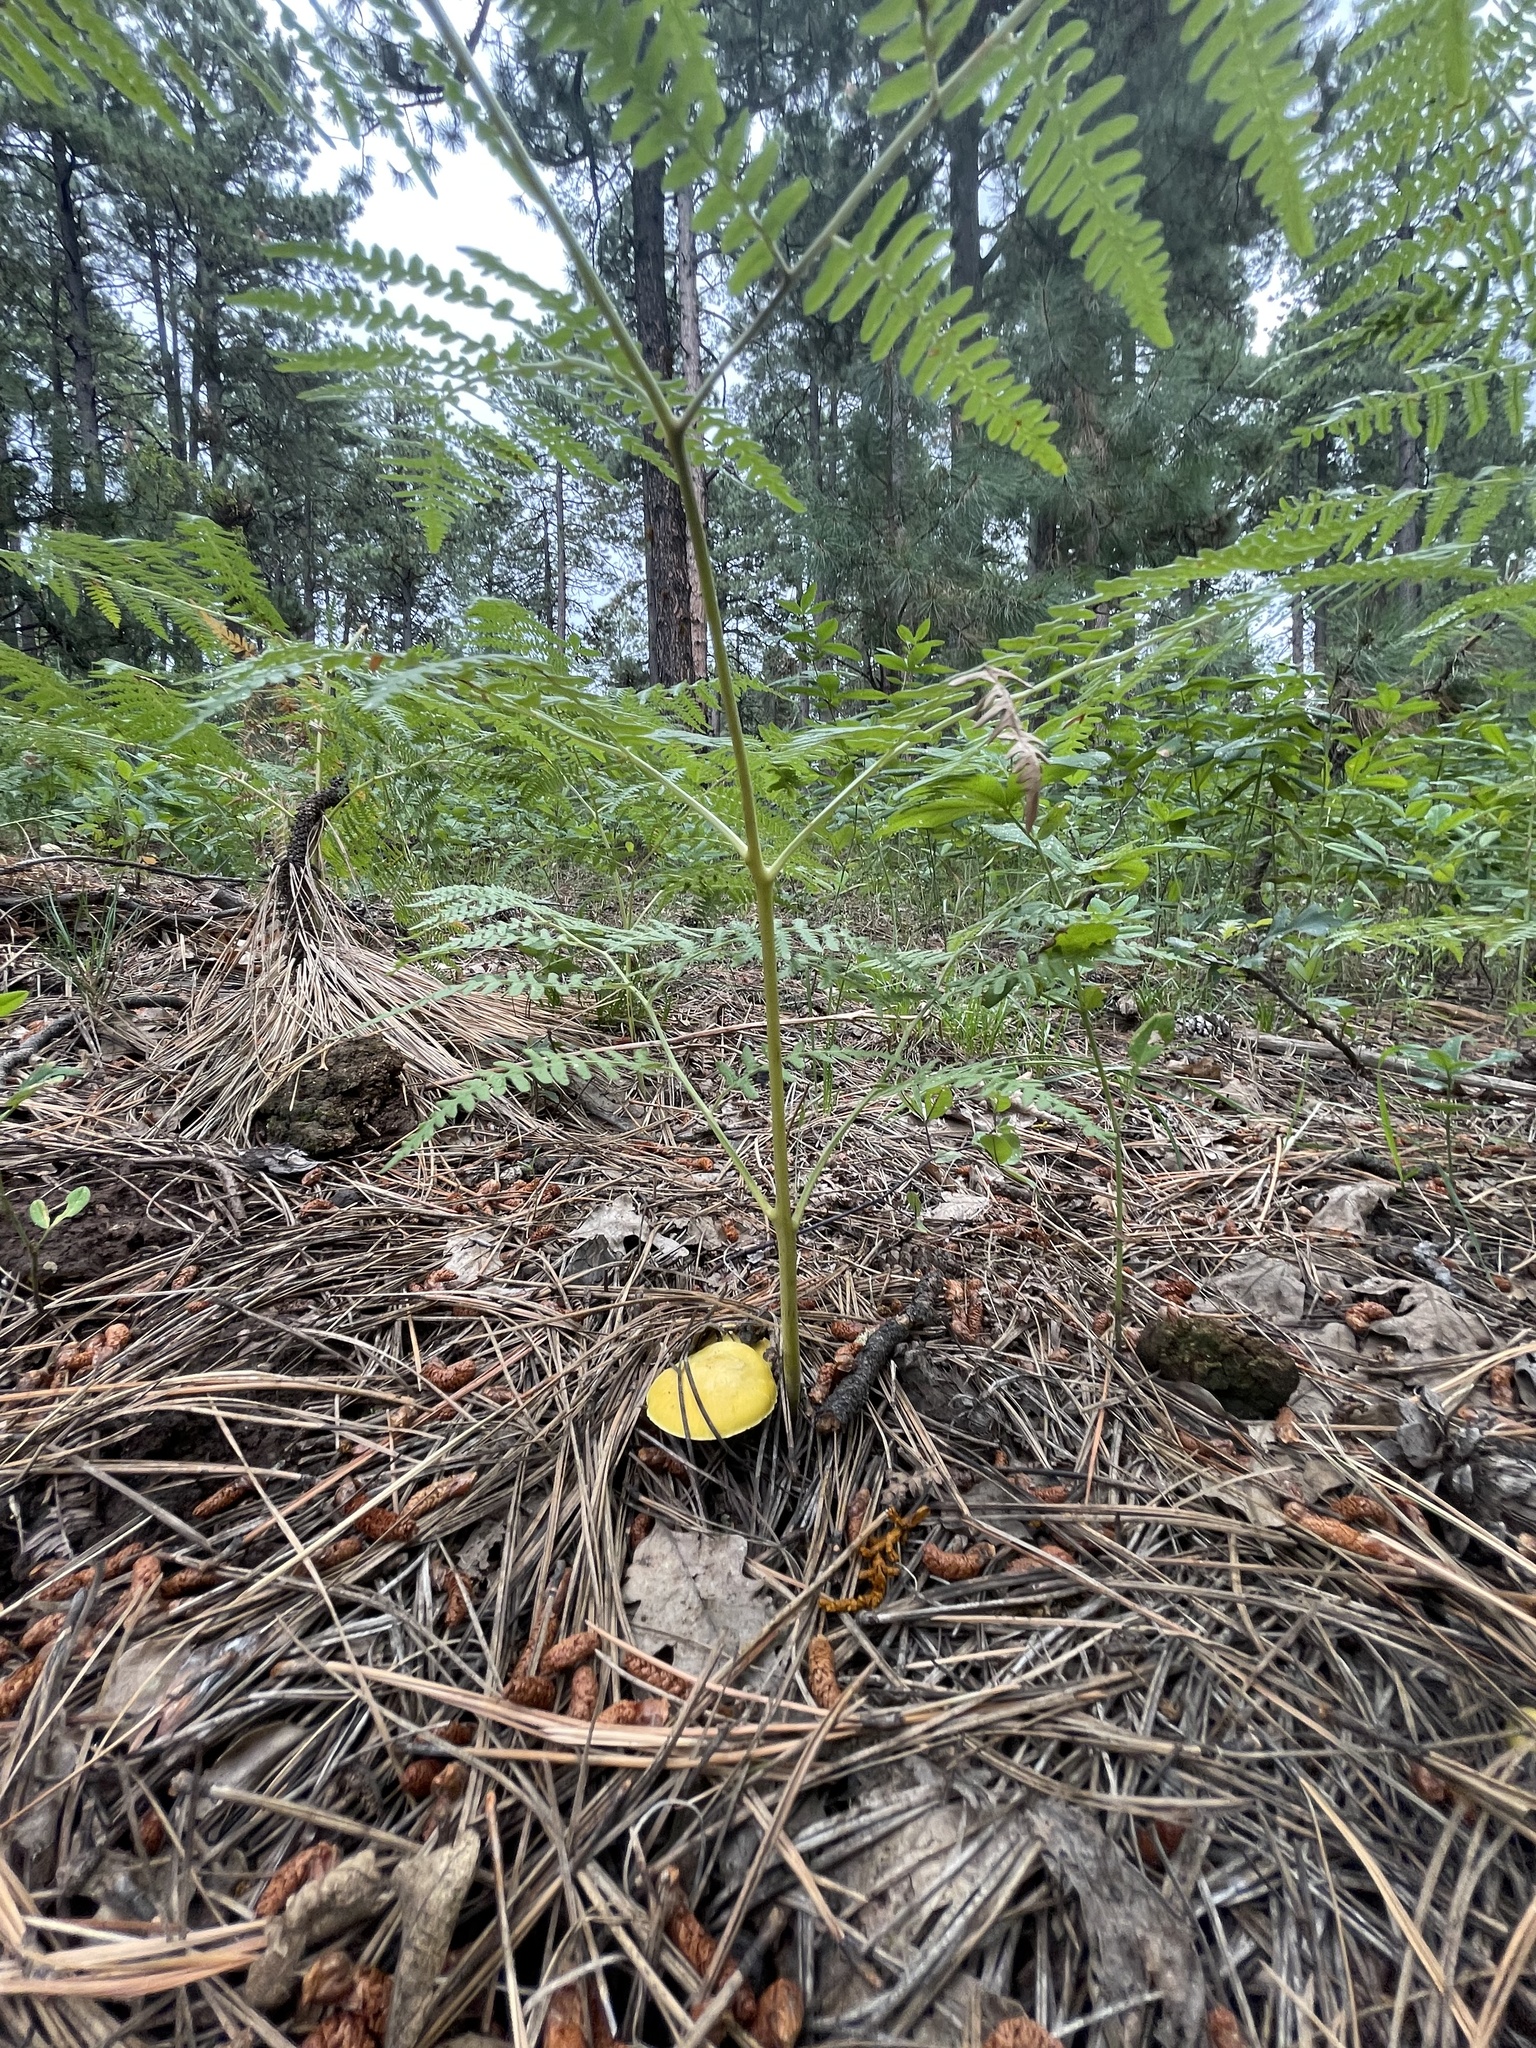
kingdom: Fungi
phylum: Basidiomycota
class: Agaricomycetes
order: Agaricales
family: Agaricaceae
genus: Floccularia
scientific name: Floccularia albolanaripes
